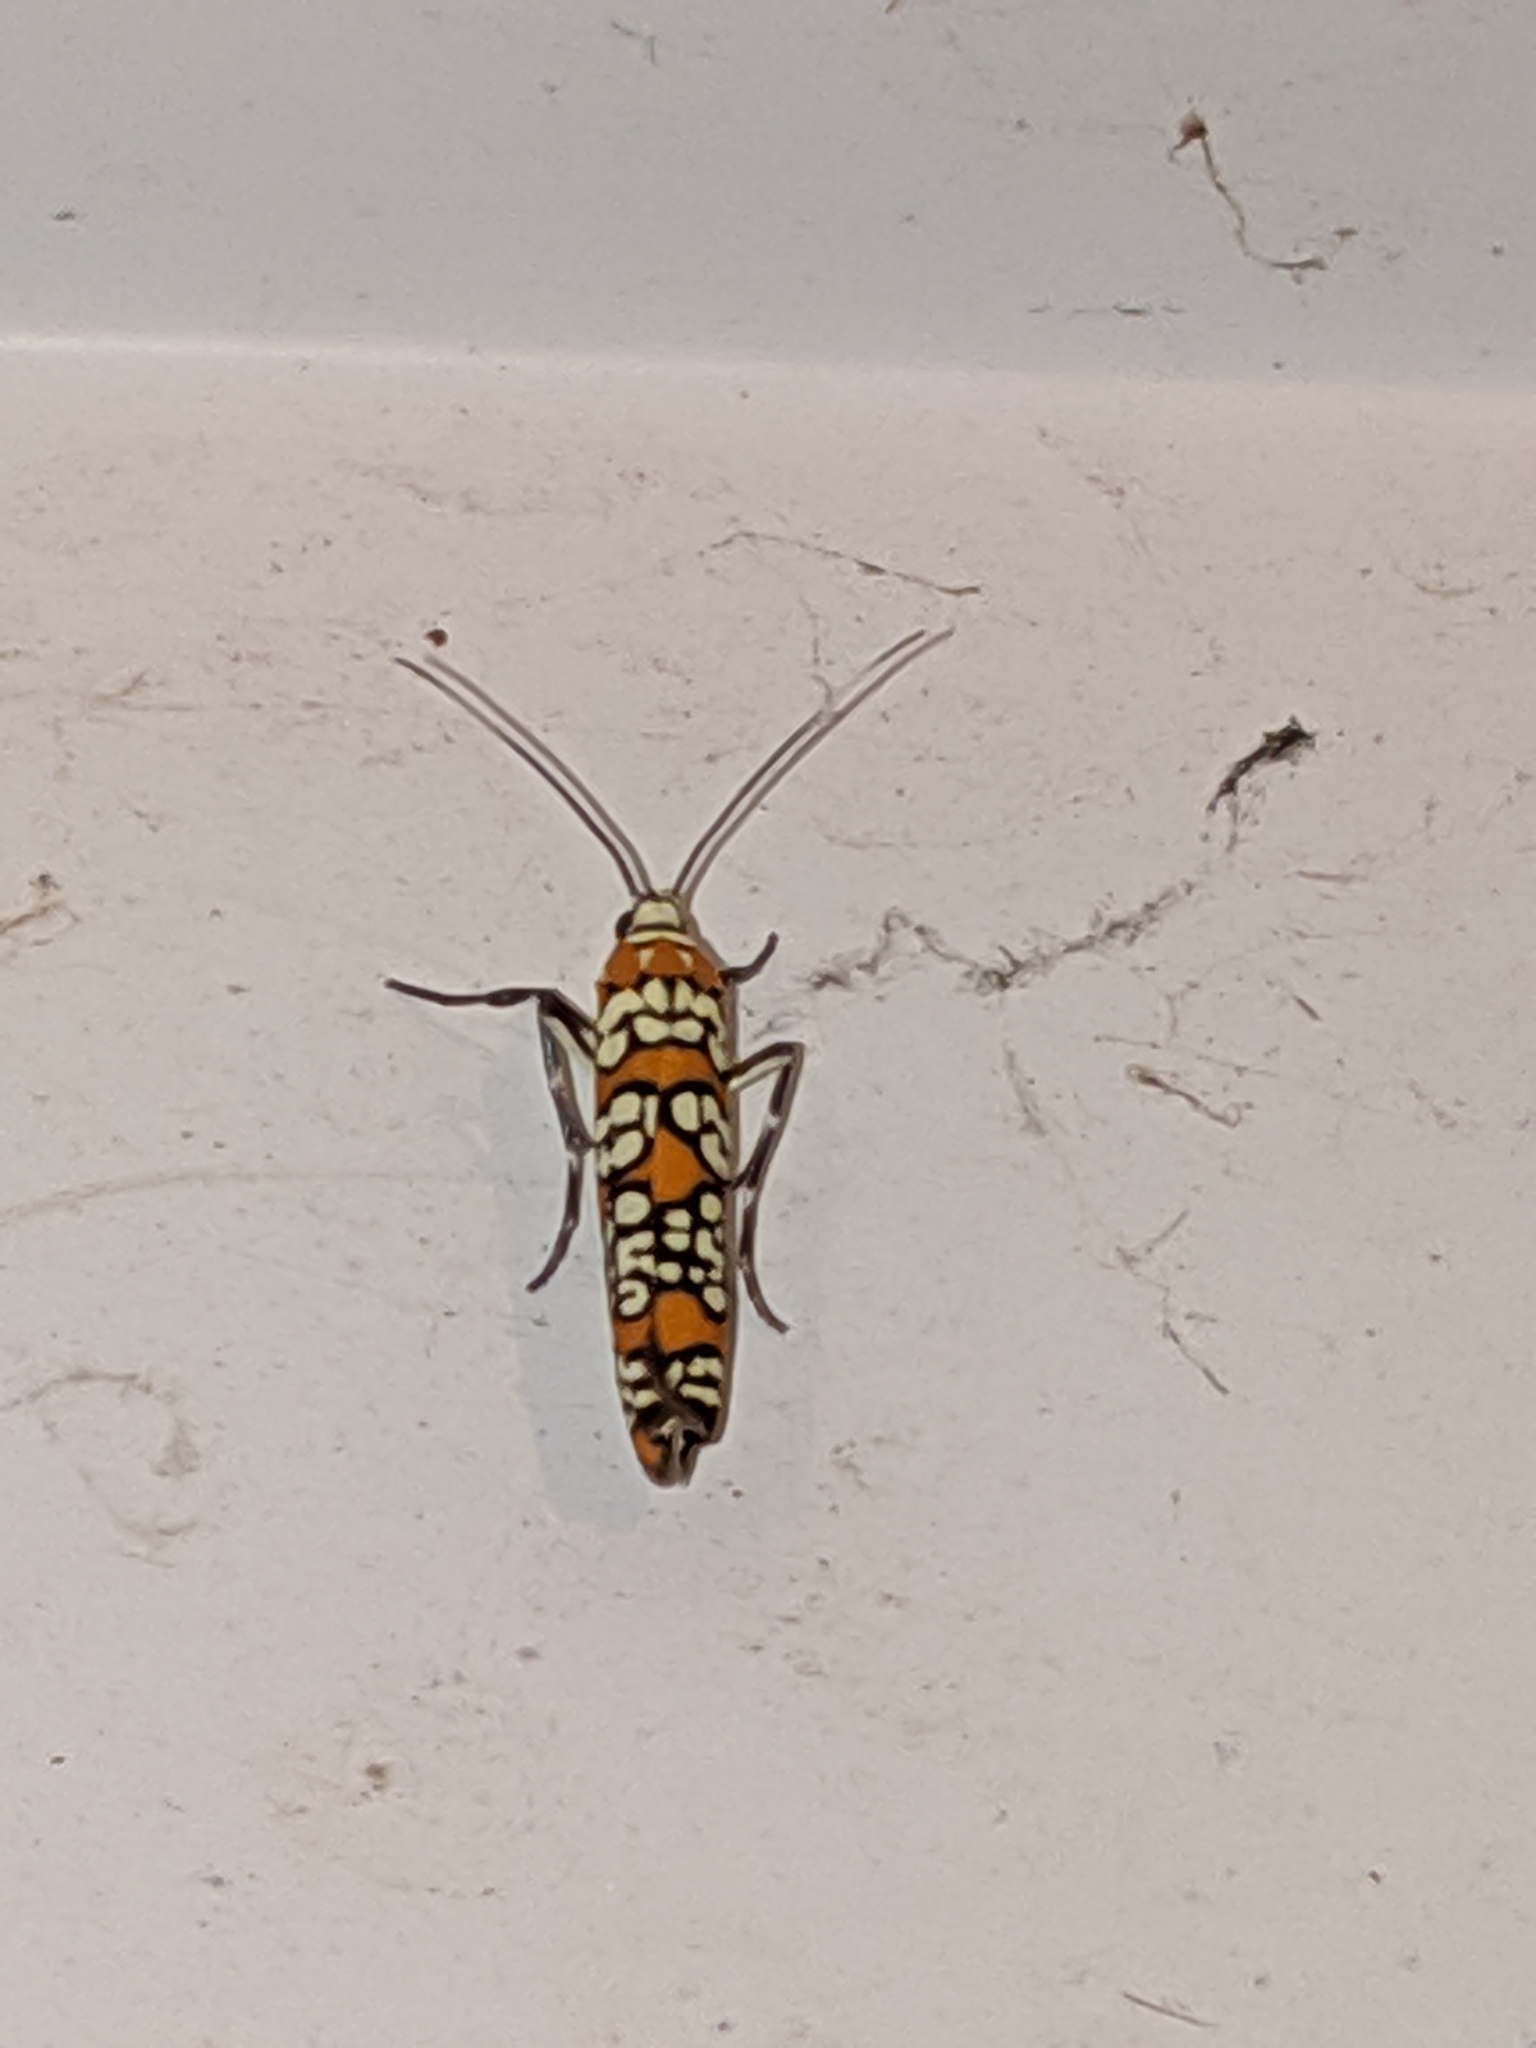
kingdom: Animalia
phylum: Arthropoda
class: Insecta
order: Lepidoptera
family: Attevidae
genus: Atteva
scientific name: Atteva punctella
